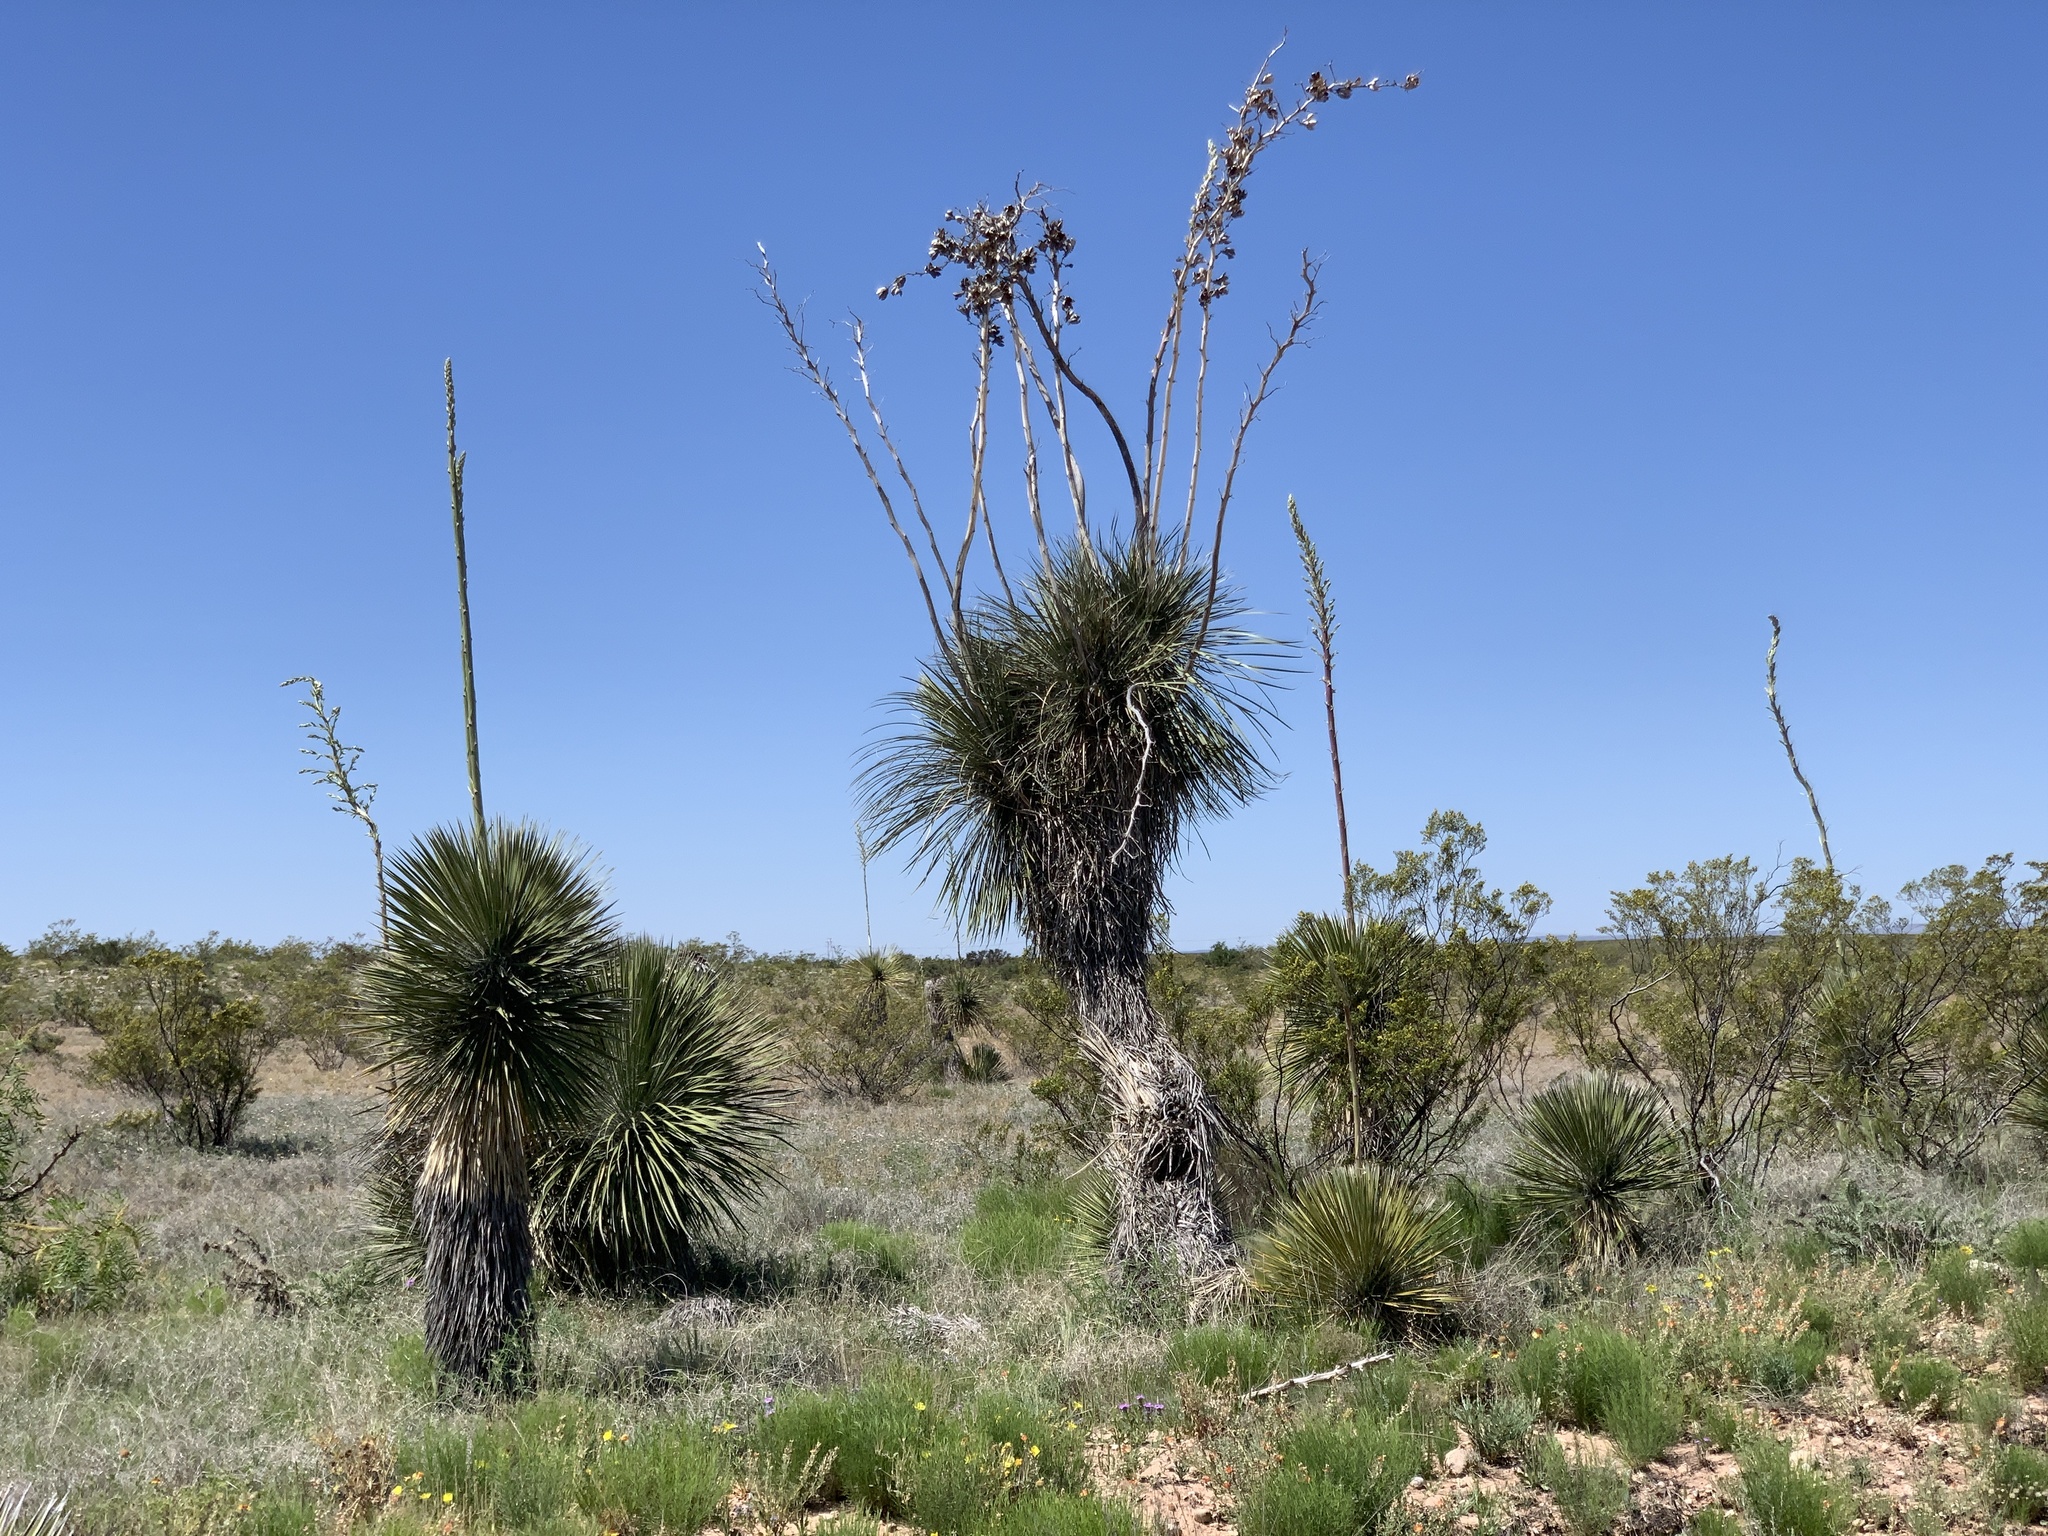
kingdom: Plantae
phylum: Tracheophyta
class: Liliopsida
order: Asparagales
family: Asparagaceae
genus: Yucca
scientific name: Yucca elata
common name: Palmella
